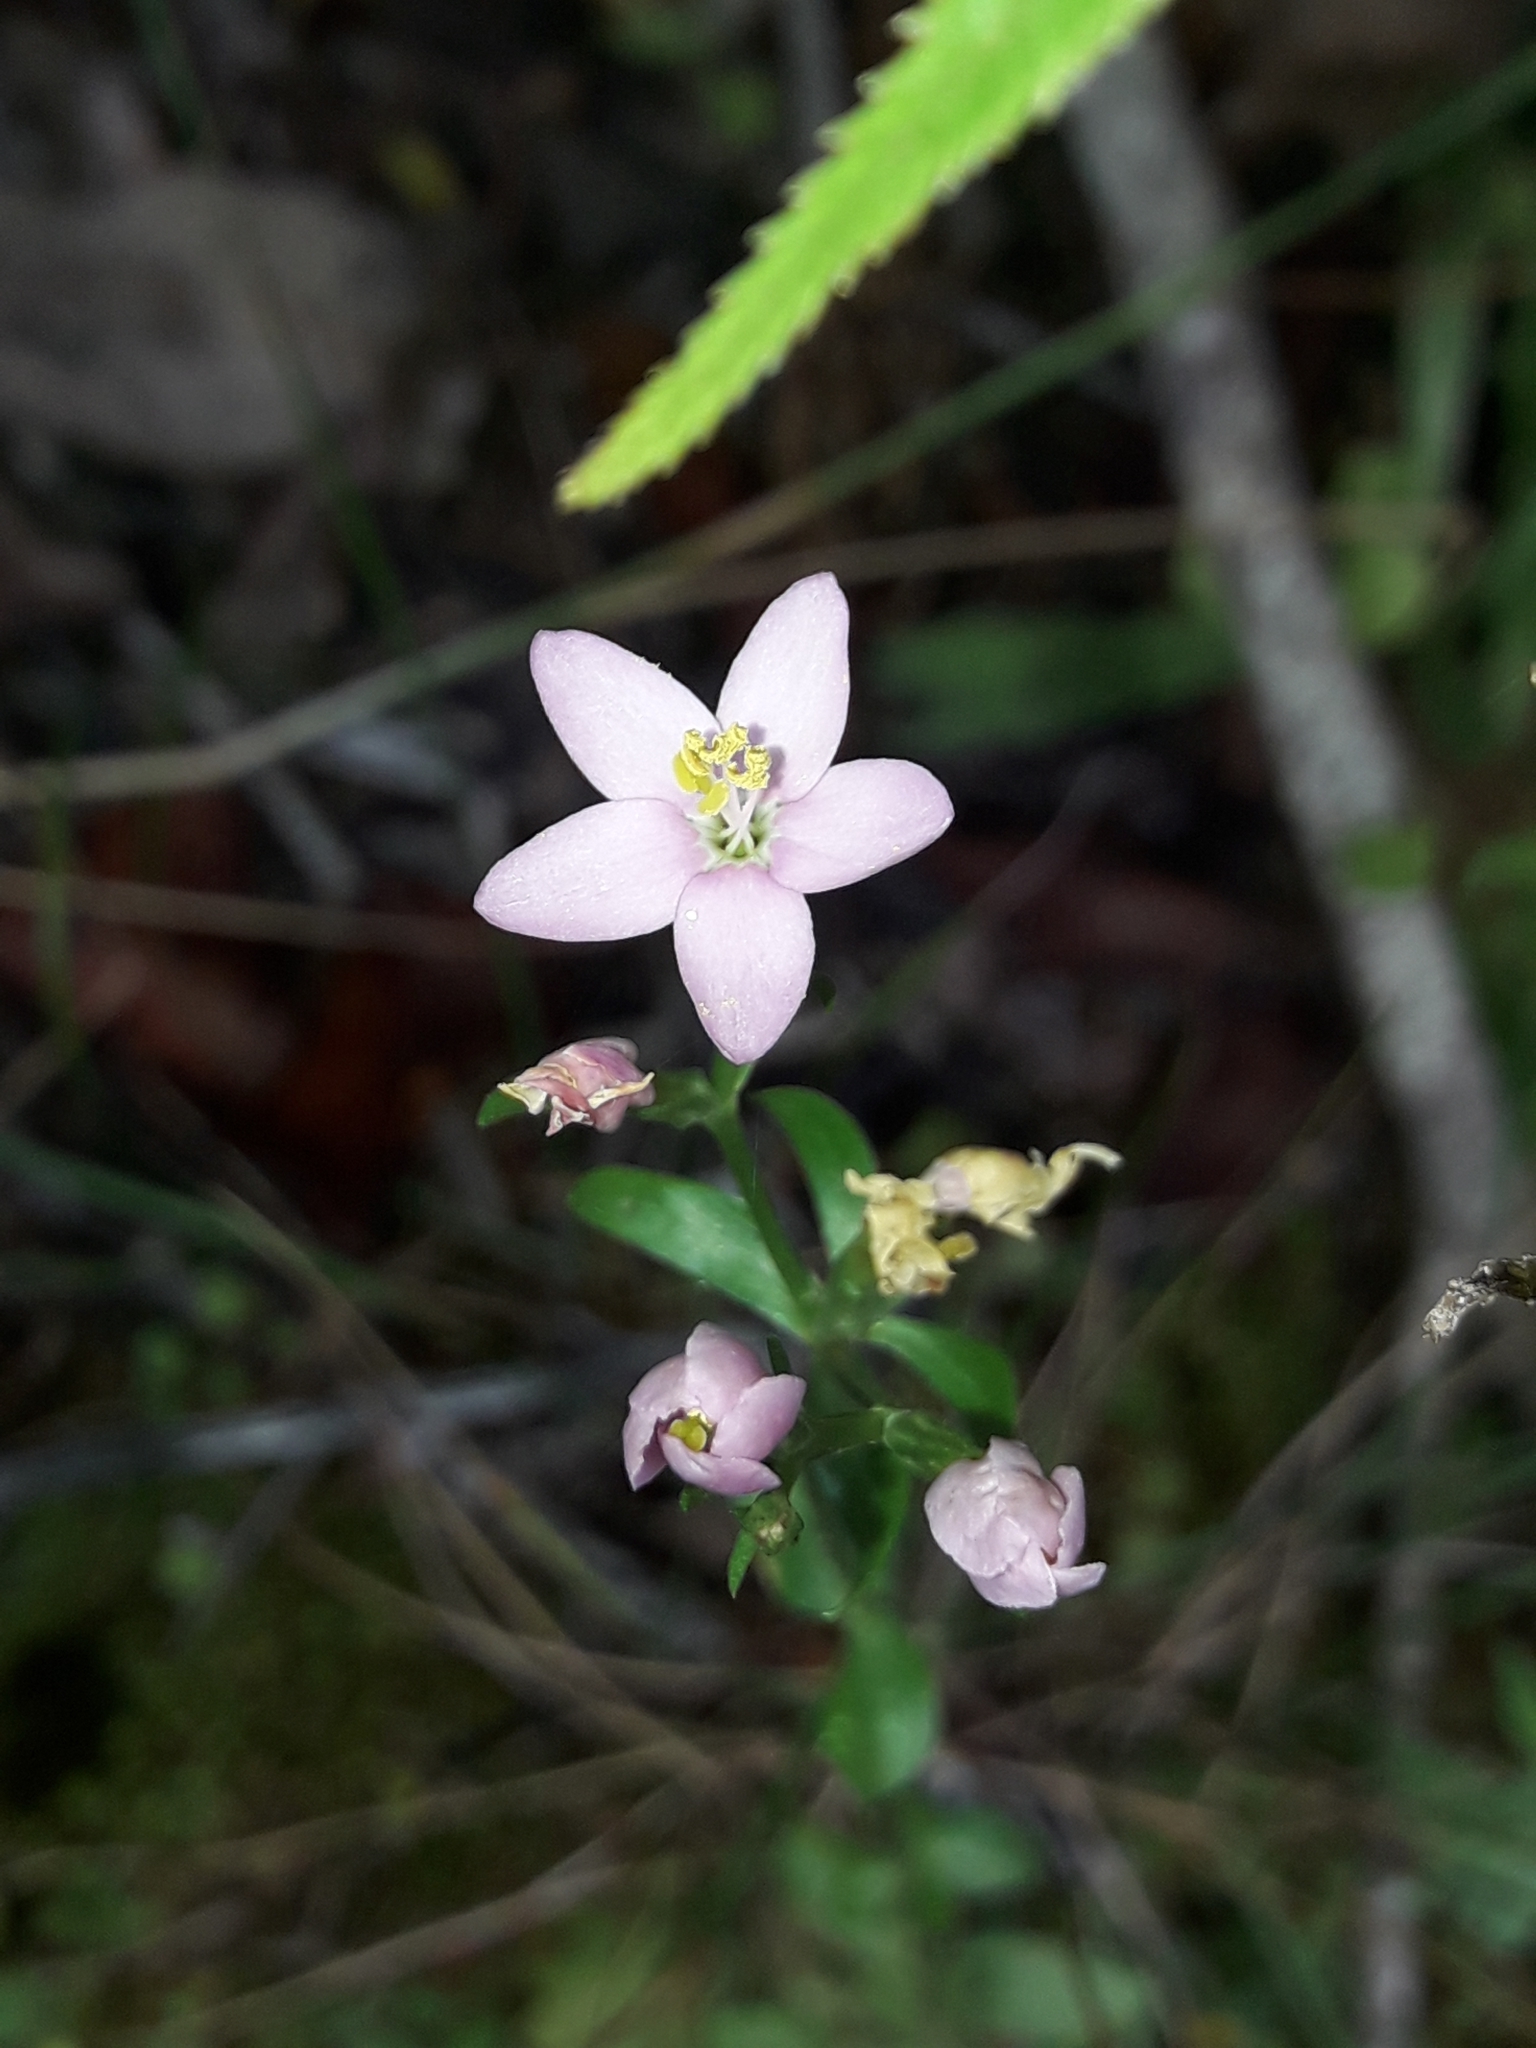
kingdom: Plantae
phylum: Tracheophyta
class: Magnoliopsida
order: Gentianales
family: Gentianaceae
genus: Centaurium
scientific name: Centaurium erythraea
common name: Common centaury
